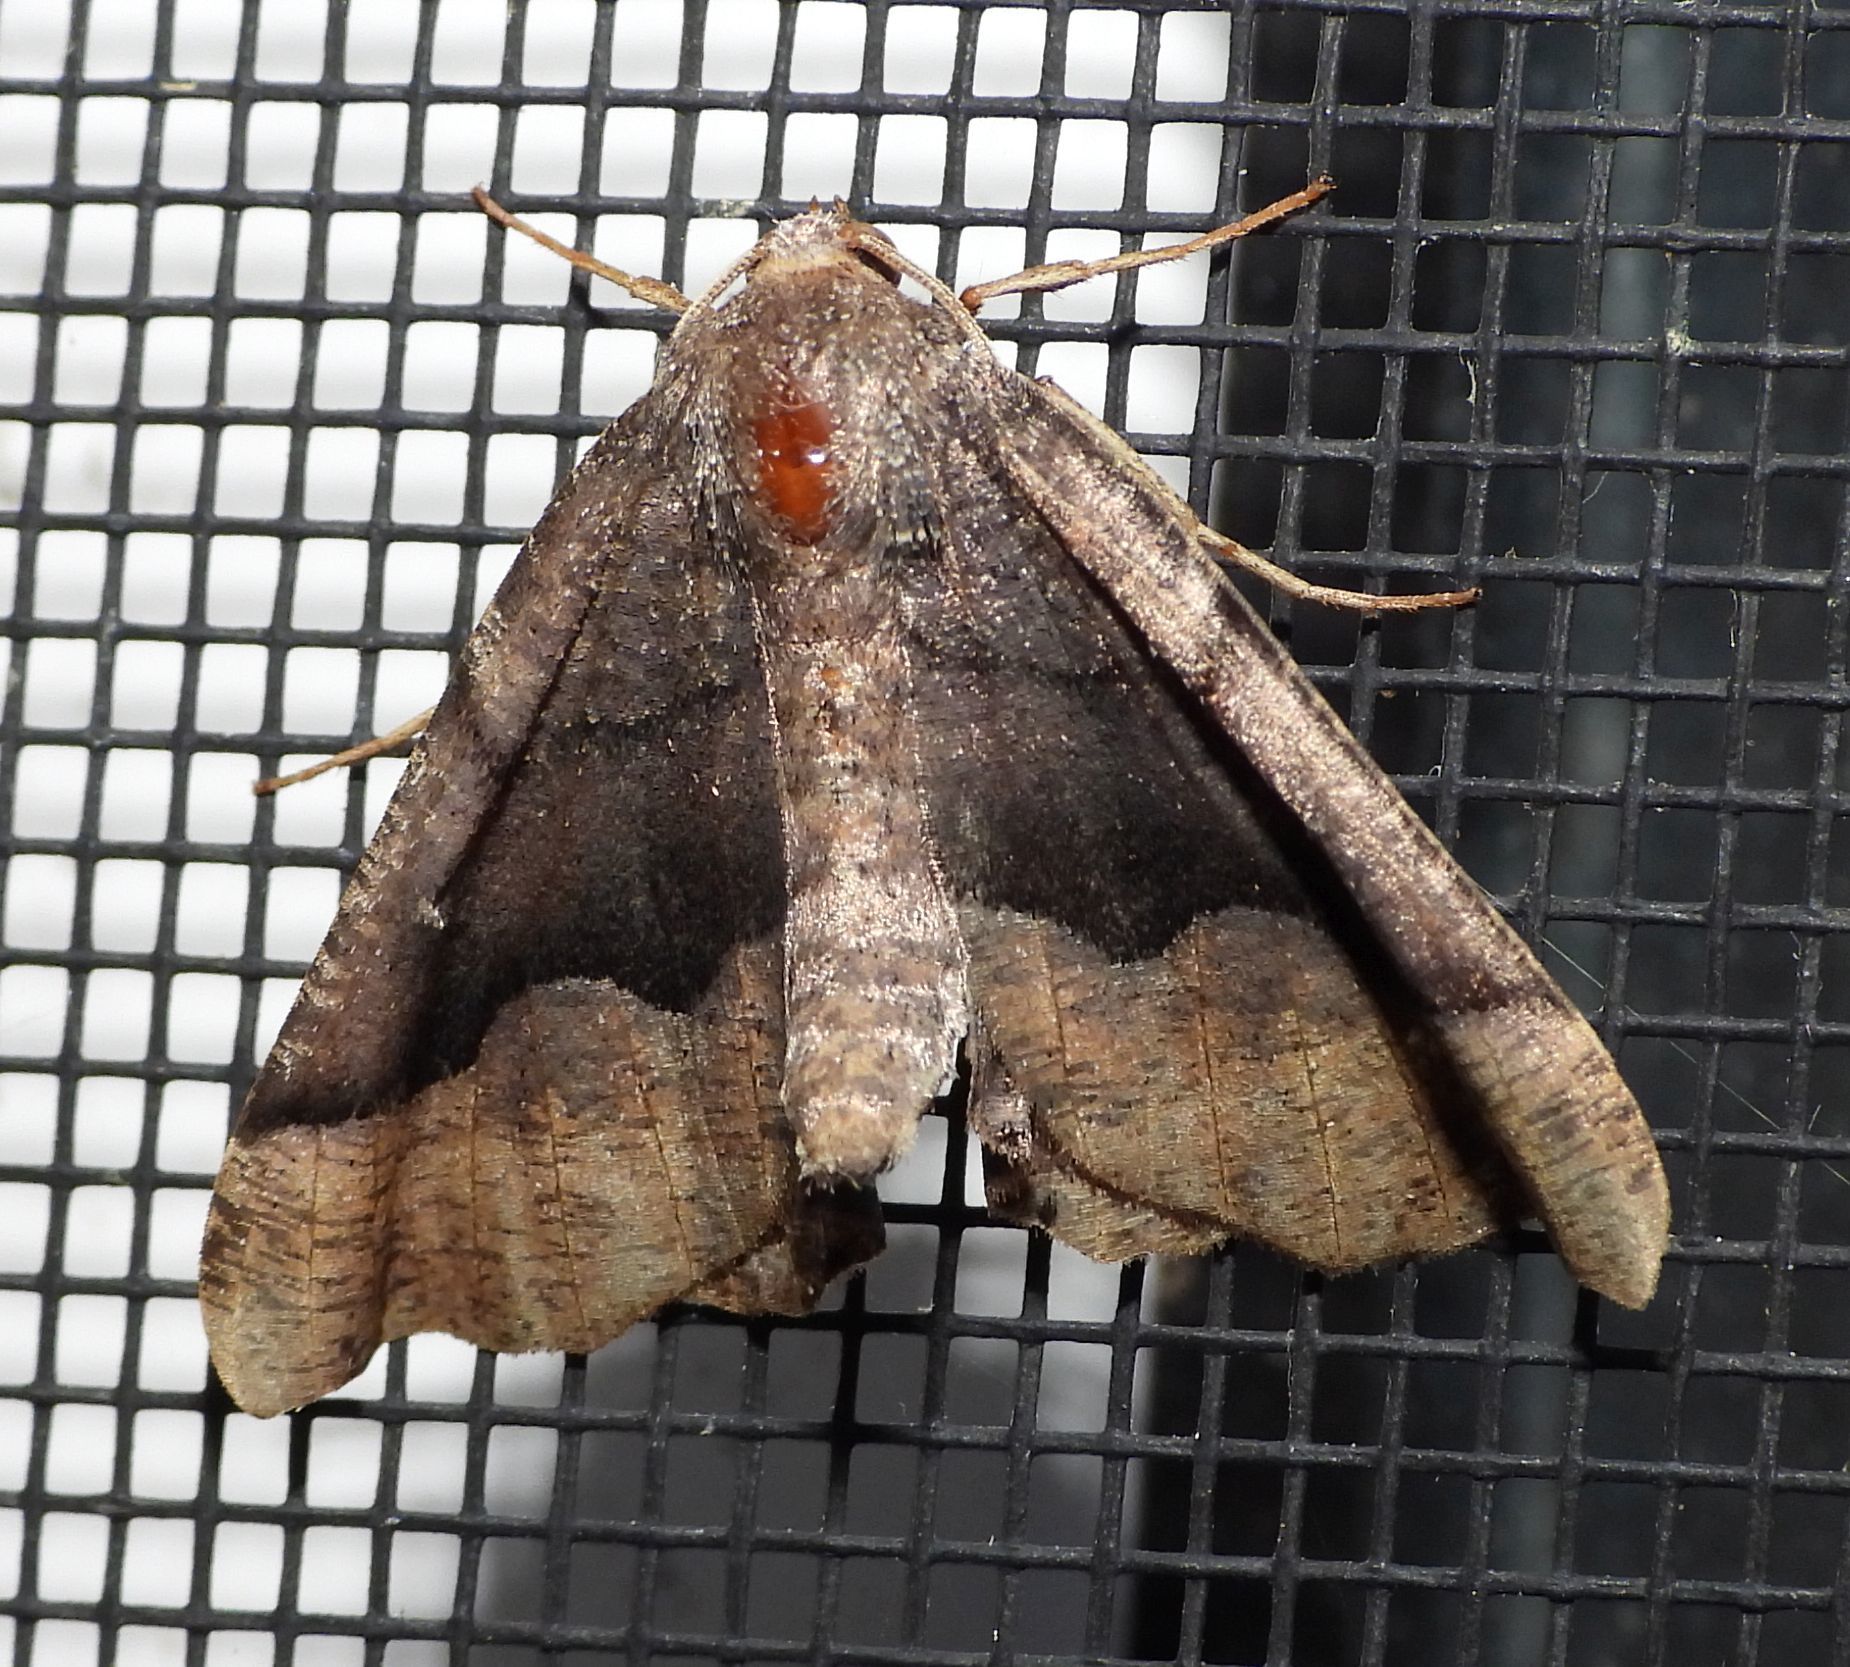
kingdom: Animalia
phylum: Arthropoda
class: Insecta
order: Lepidoptera
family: Geometridae
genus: Pero
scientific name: Pero honestaria
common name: Honest pero
